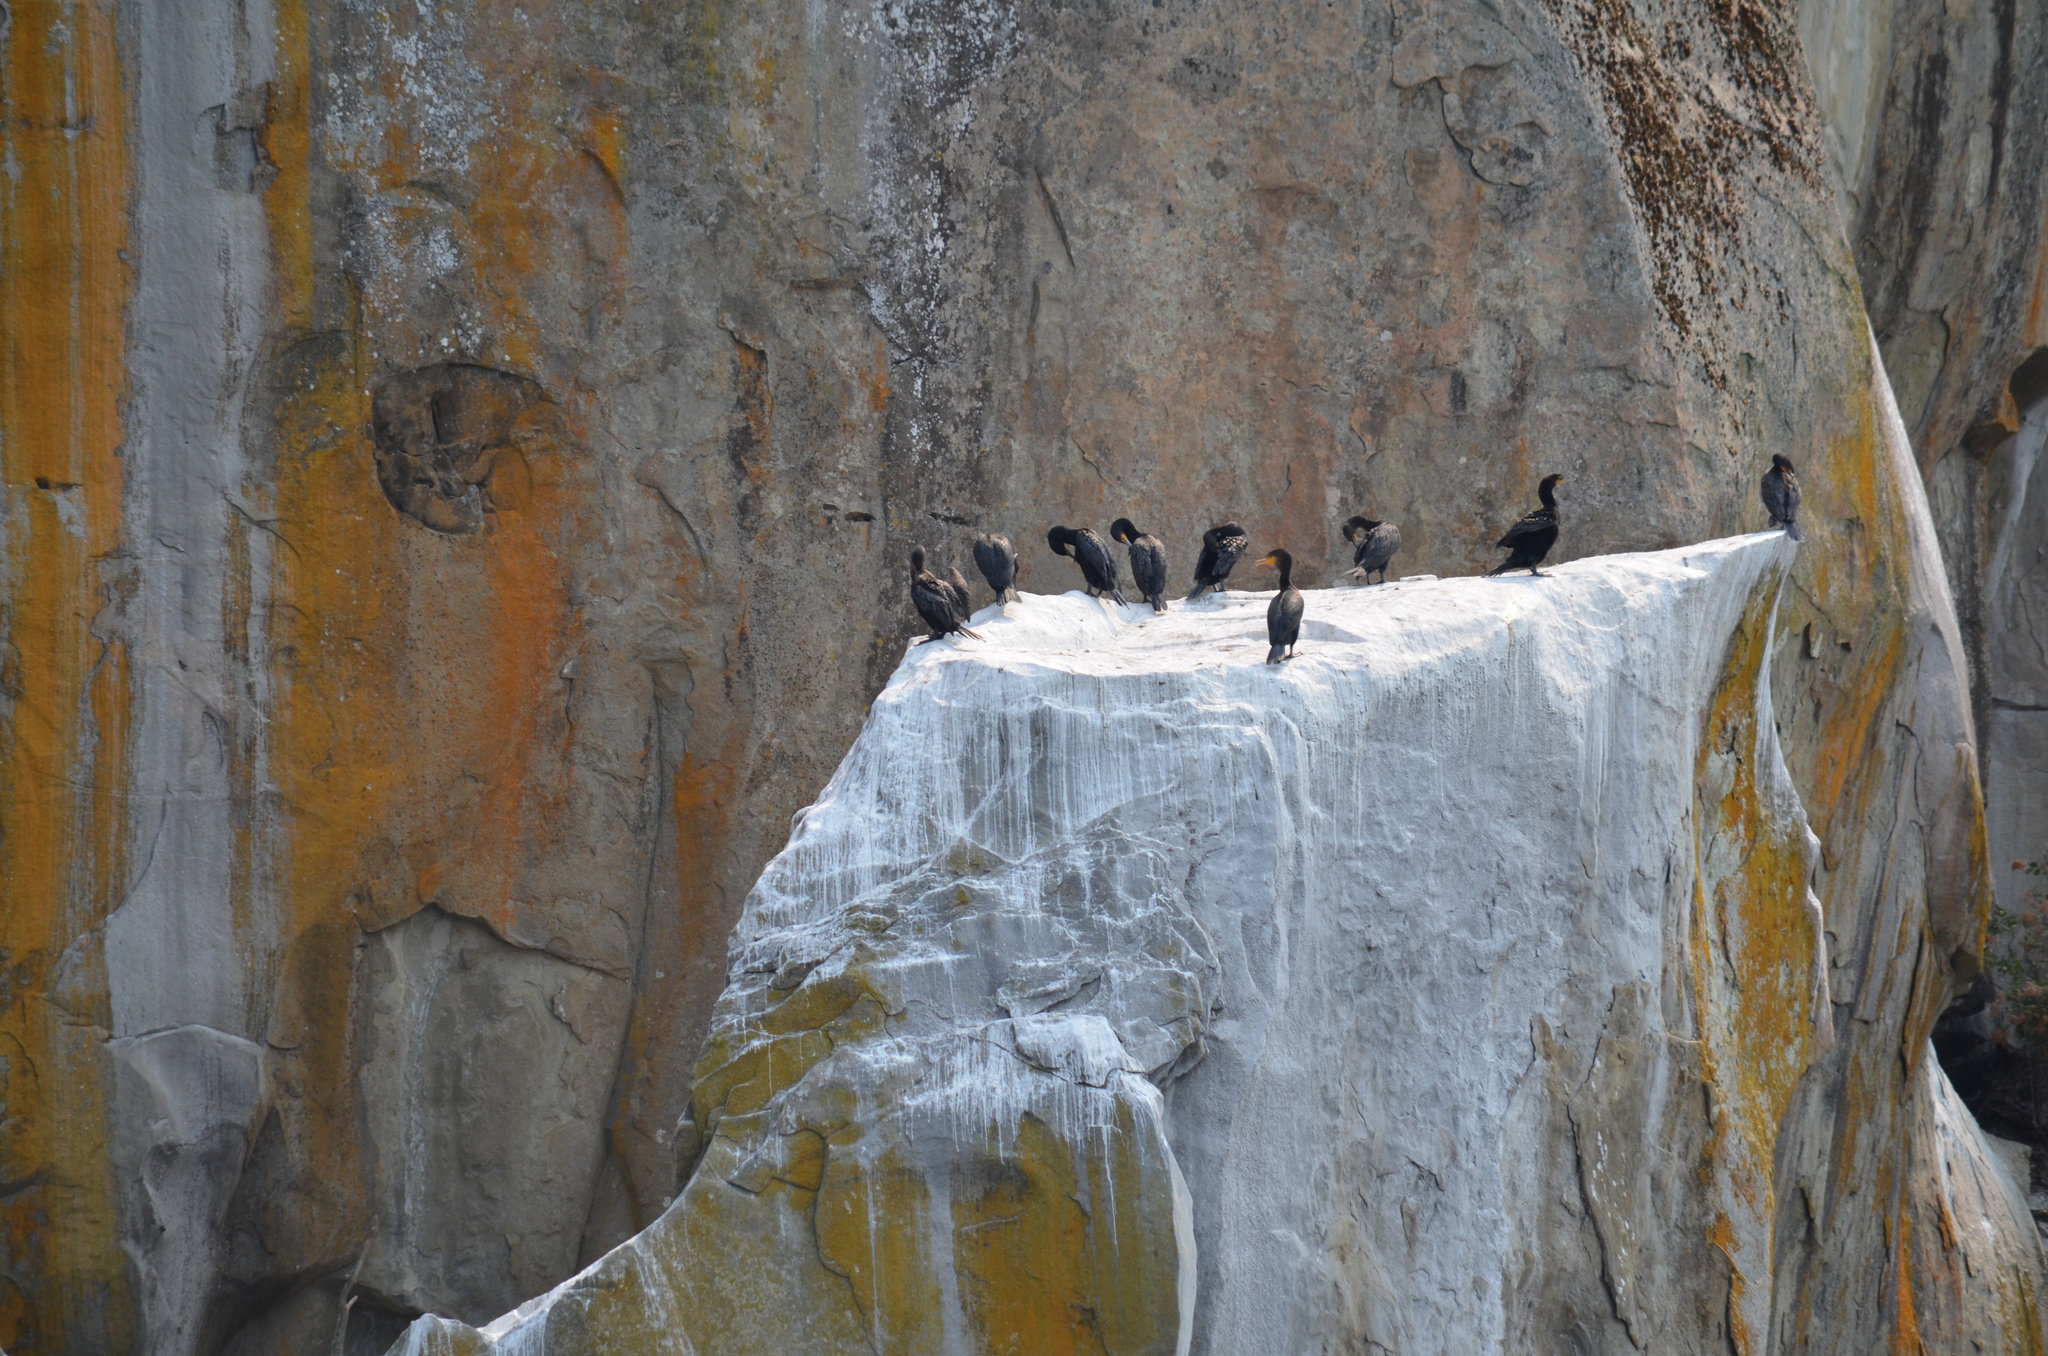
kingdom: Animalia
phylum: Chordata
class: Aves
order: Suliformes
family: Phalacrocoracidae
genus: Phalacrocorax
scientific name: Phalacrocorax auritus
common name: Double-crested cormorant
